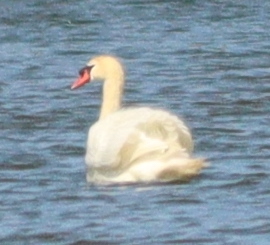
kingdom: Animalia
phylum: Chordata
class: Aves
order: Anseriformes
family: Anatidae
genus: Cygnus
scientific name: Cygnus olor
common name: Mute swan
